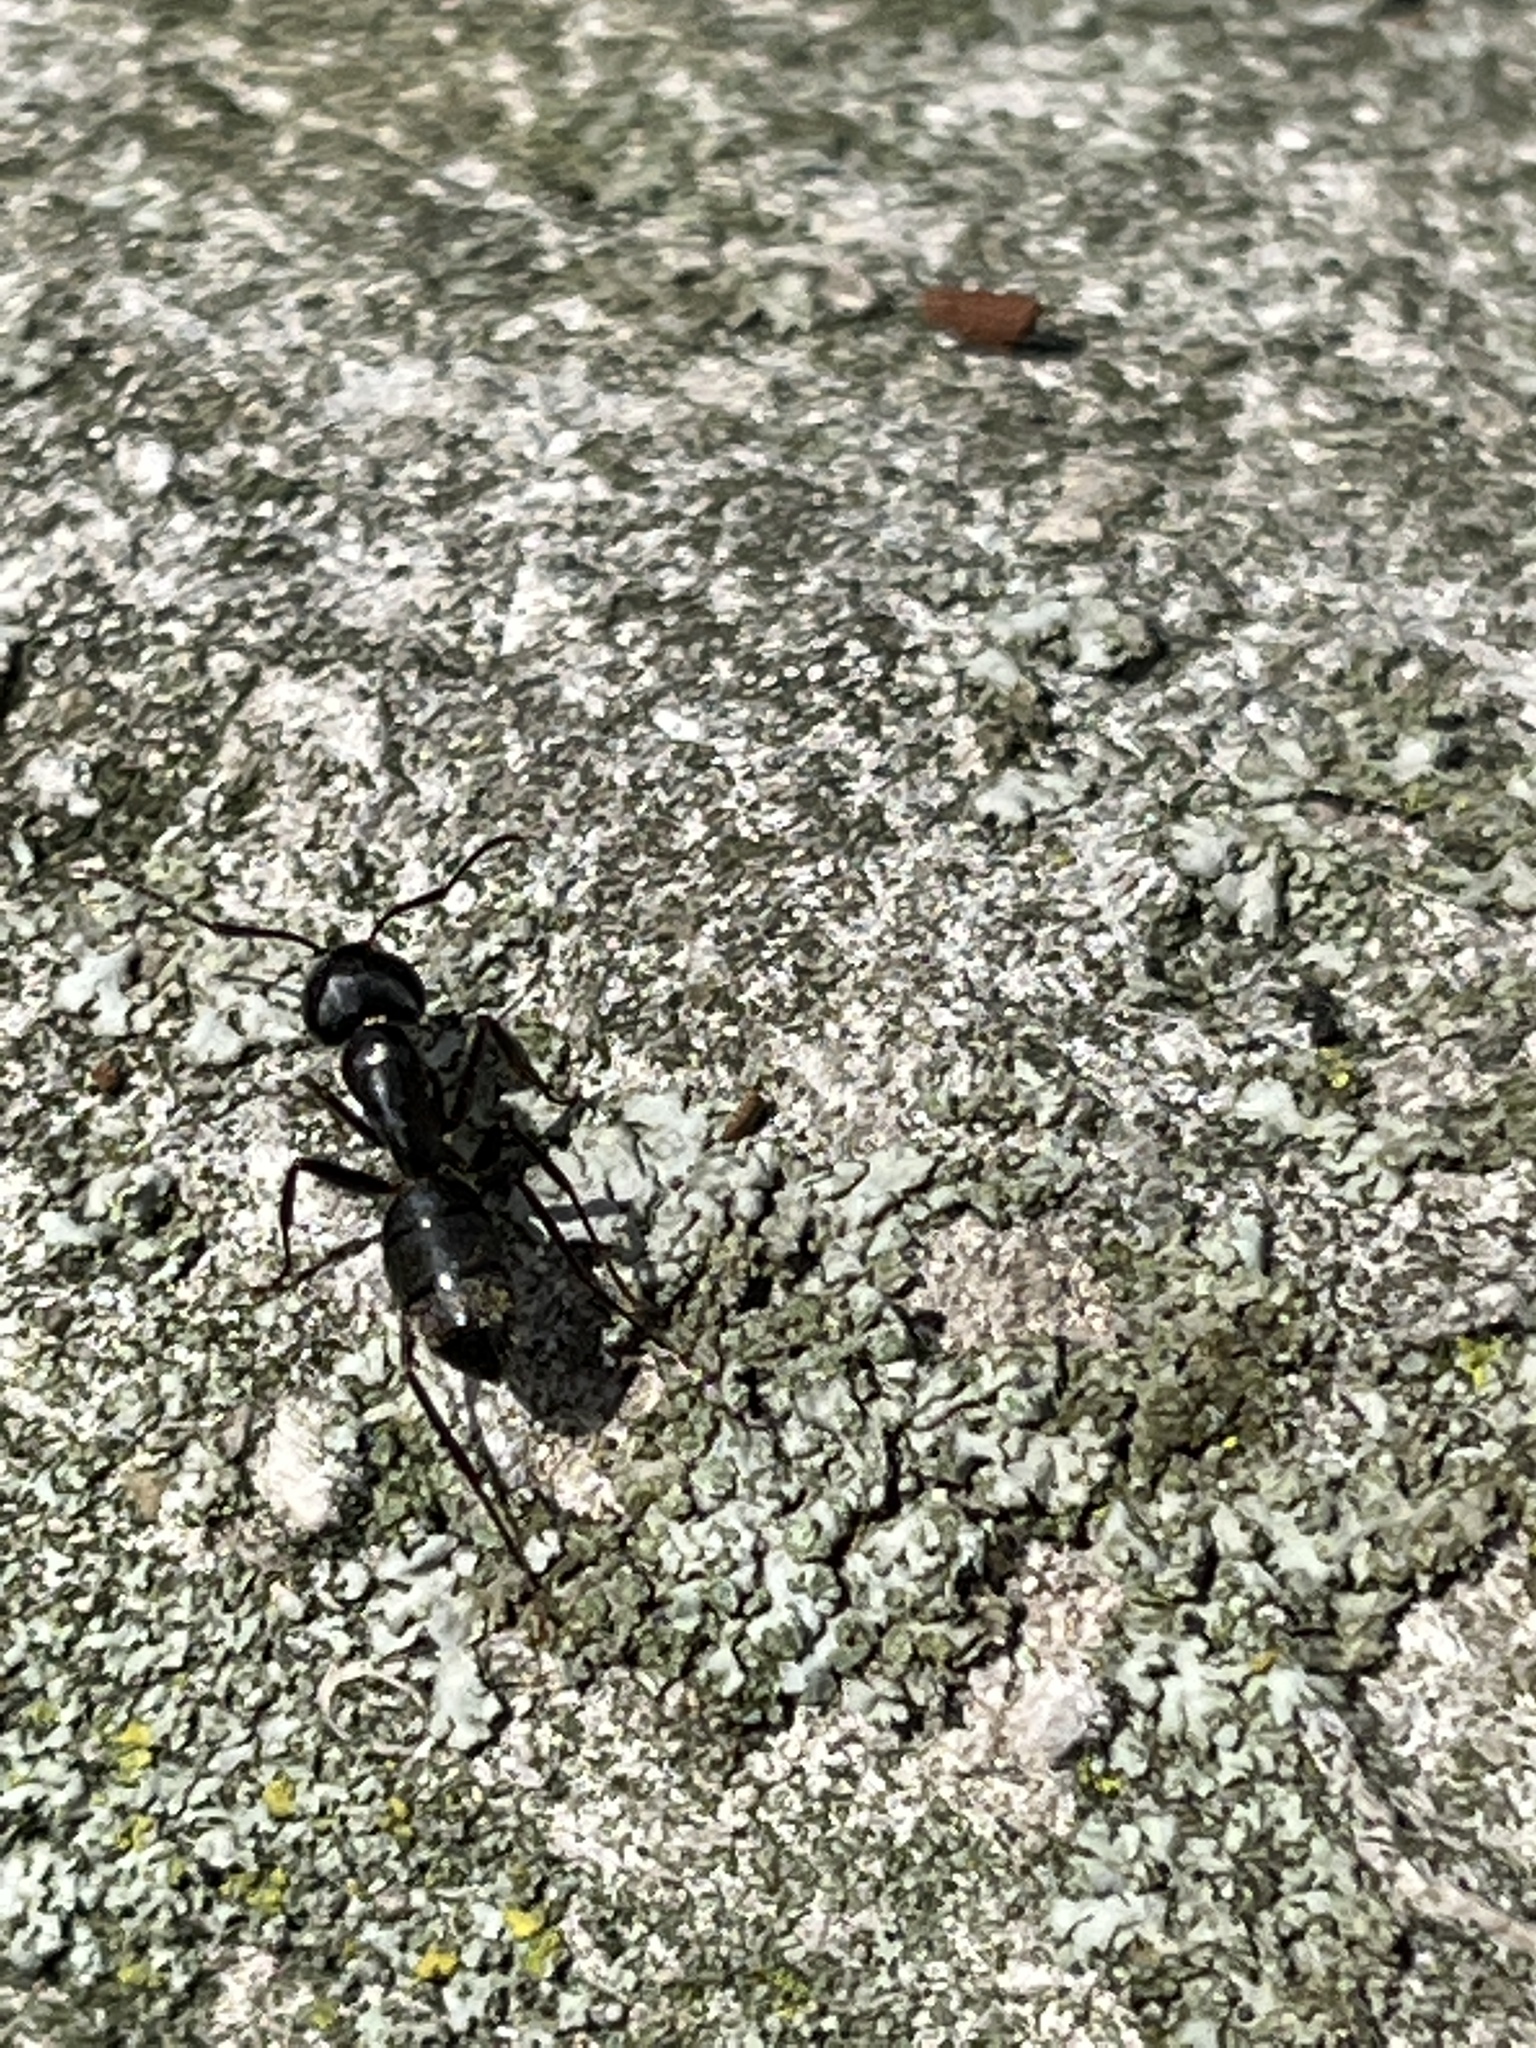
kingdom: Animalia
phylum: Arthropoda
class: Insecta
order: Hymenoptera
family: Formicidae
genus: Camponotus
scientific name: Camponotus pennsylvanicus
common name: Black carpenter ant
